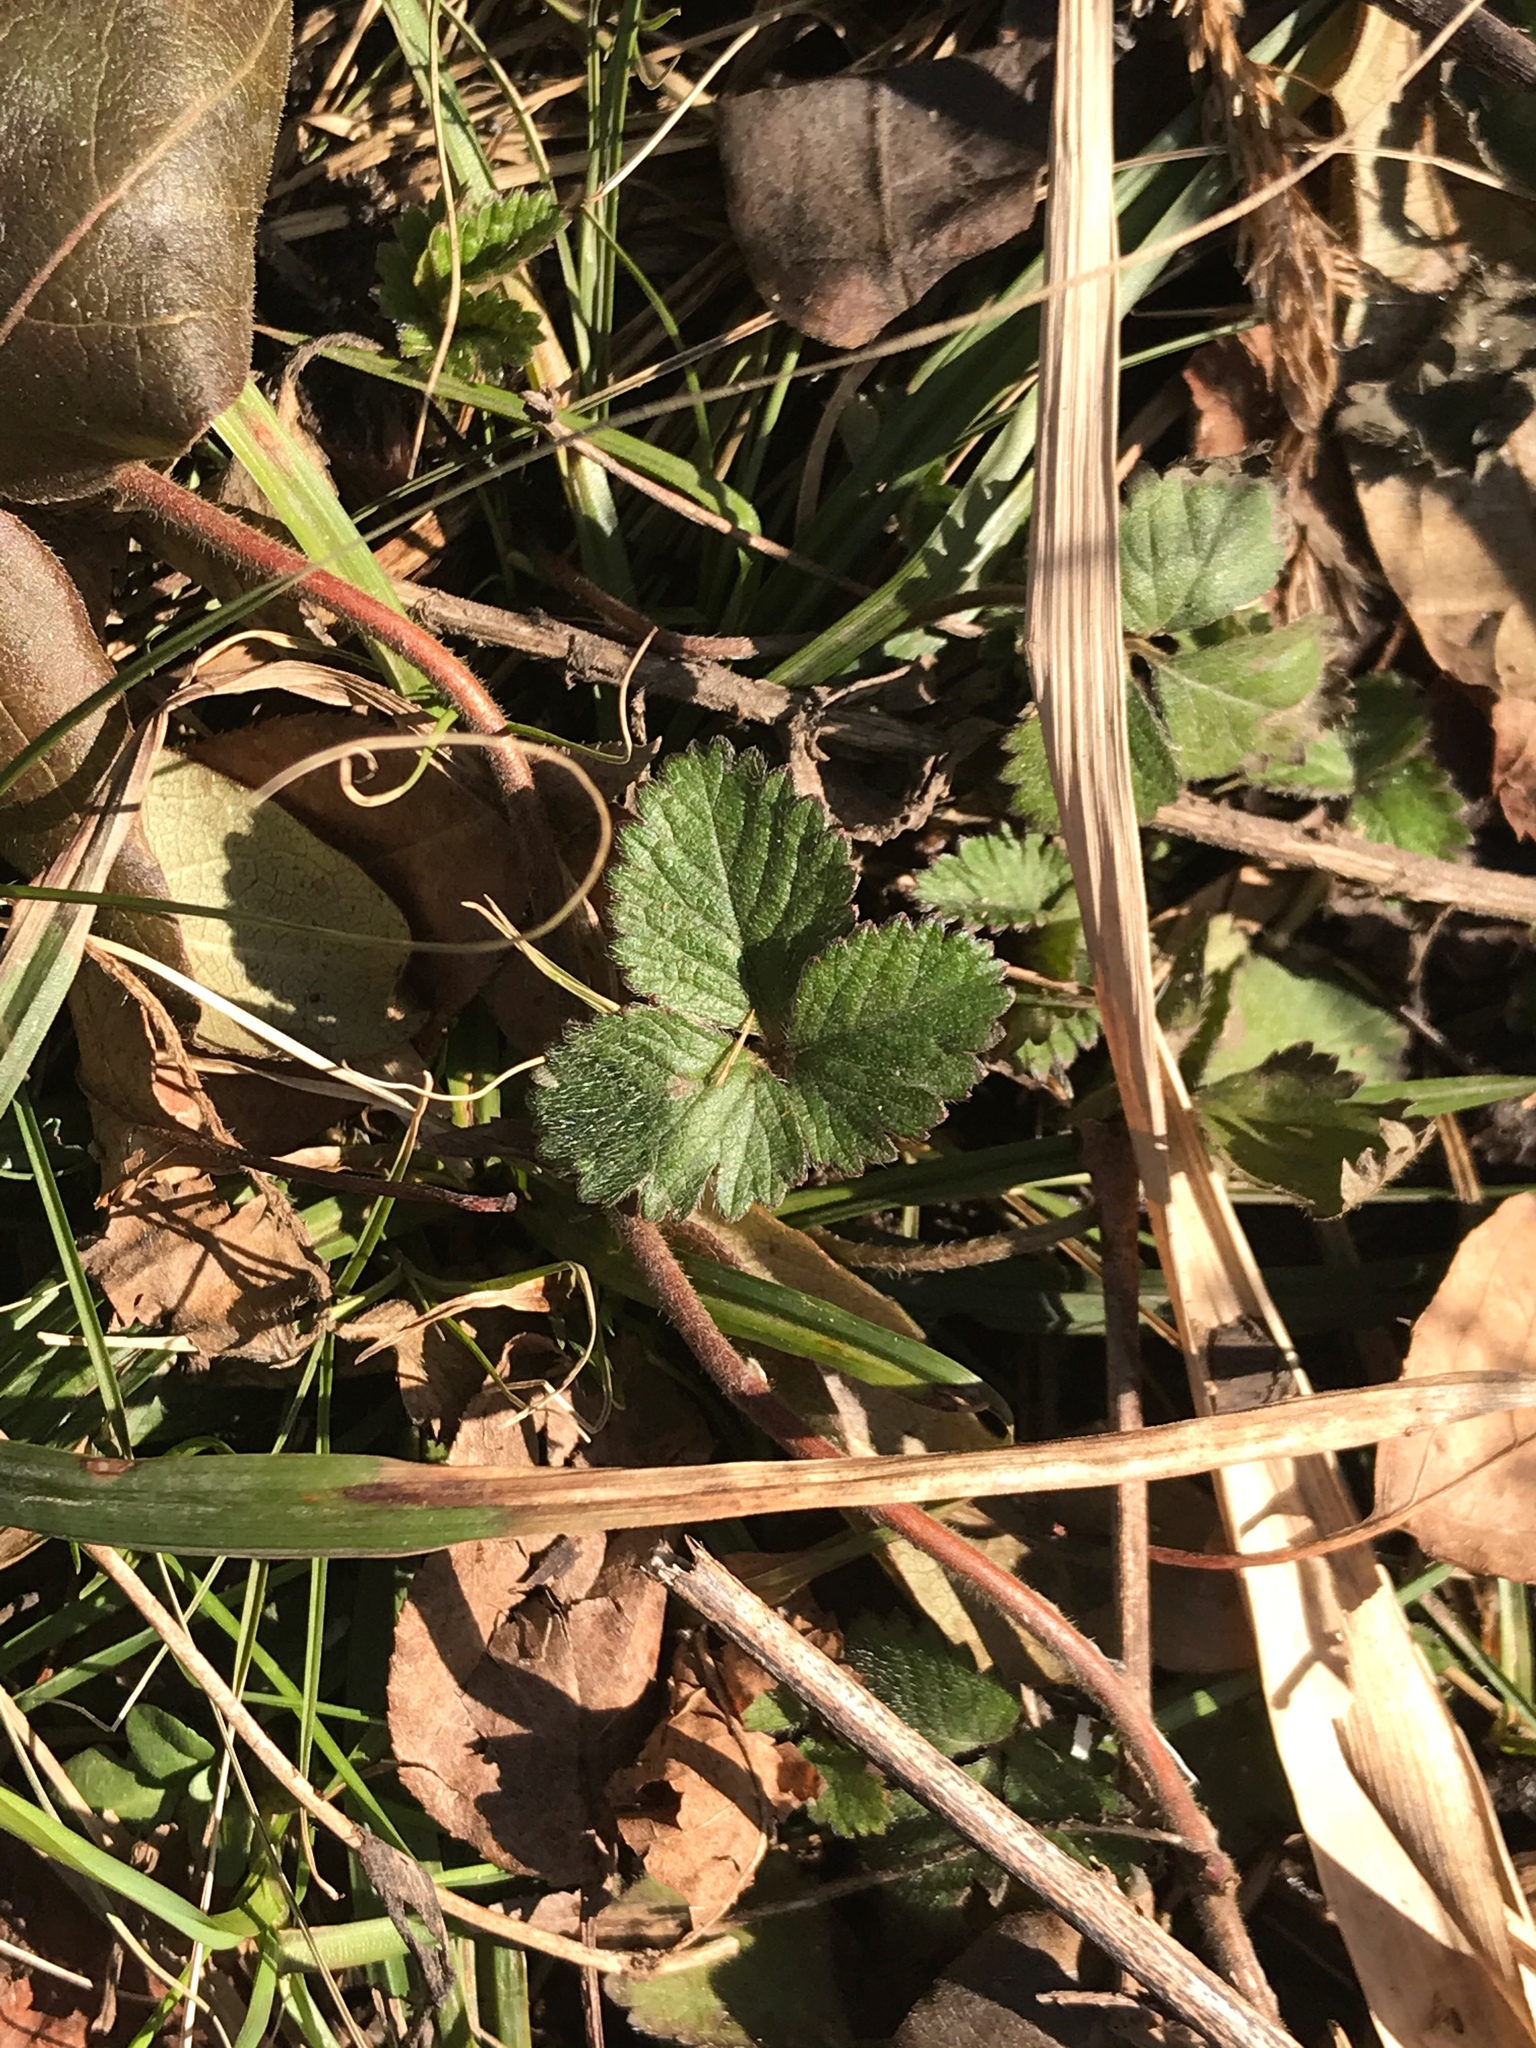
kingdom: Plantae
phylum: Tracheophyta
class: Magnoliopsida
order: Rosales
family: Rosaceae
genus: Potentilla
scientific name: Potentilla indica
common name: Yellow-flowered strawberry
